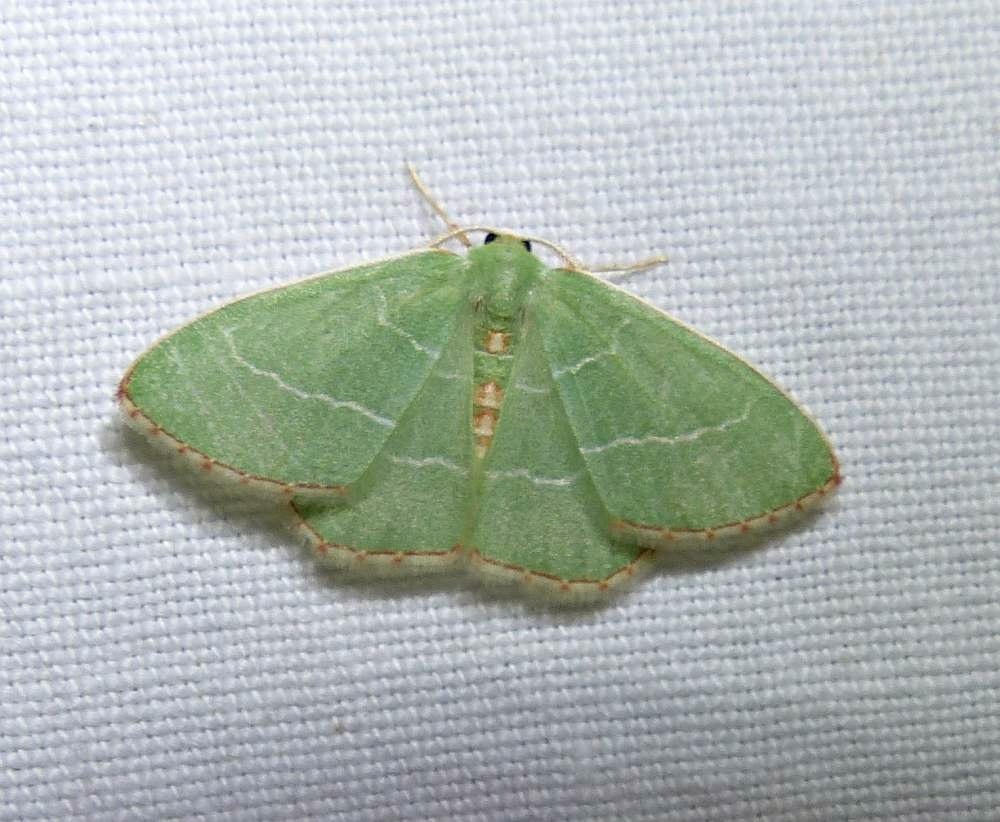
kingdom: Animalia
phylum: Arthropoda
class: Insecta
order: Lepidoptera
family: Geometridae
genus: Nemoria
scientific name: Nemoria bistriaria
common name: Red-fringed emerald
